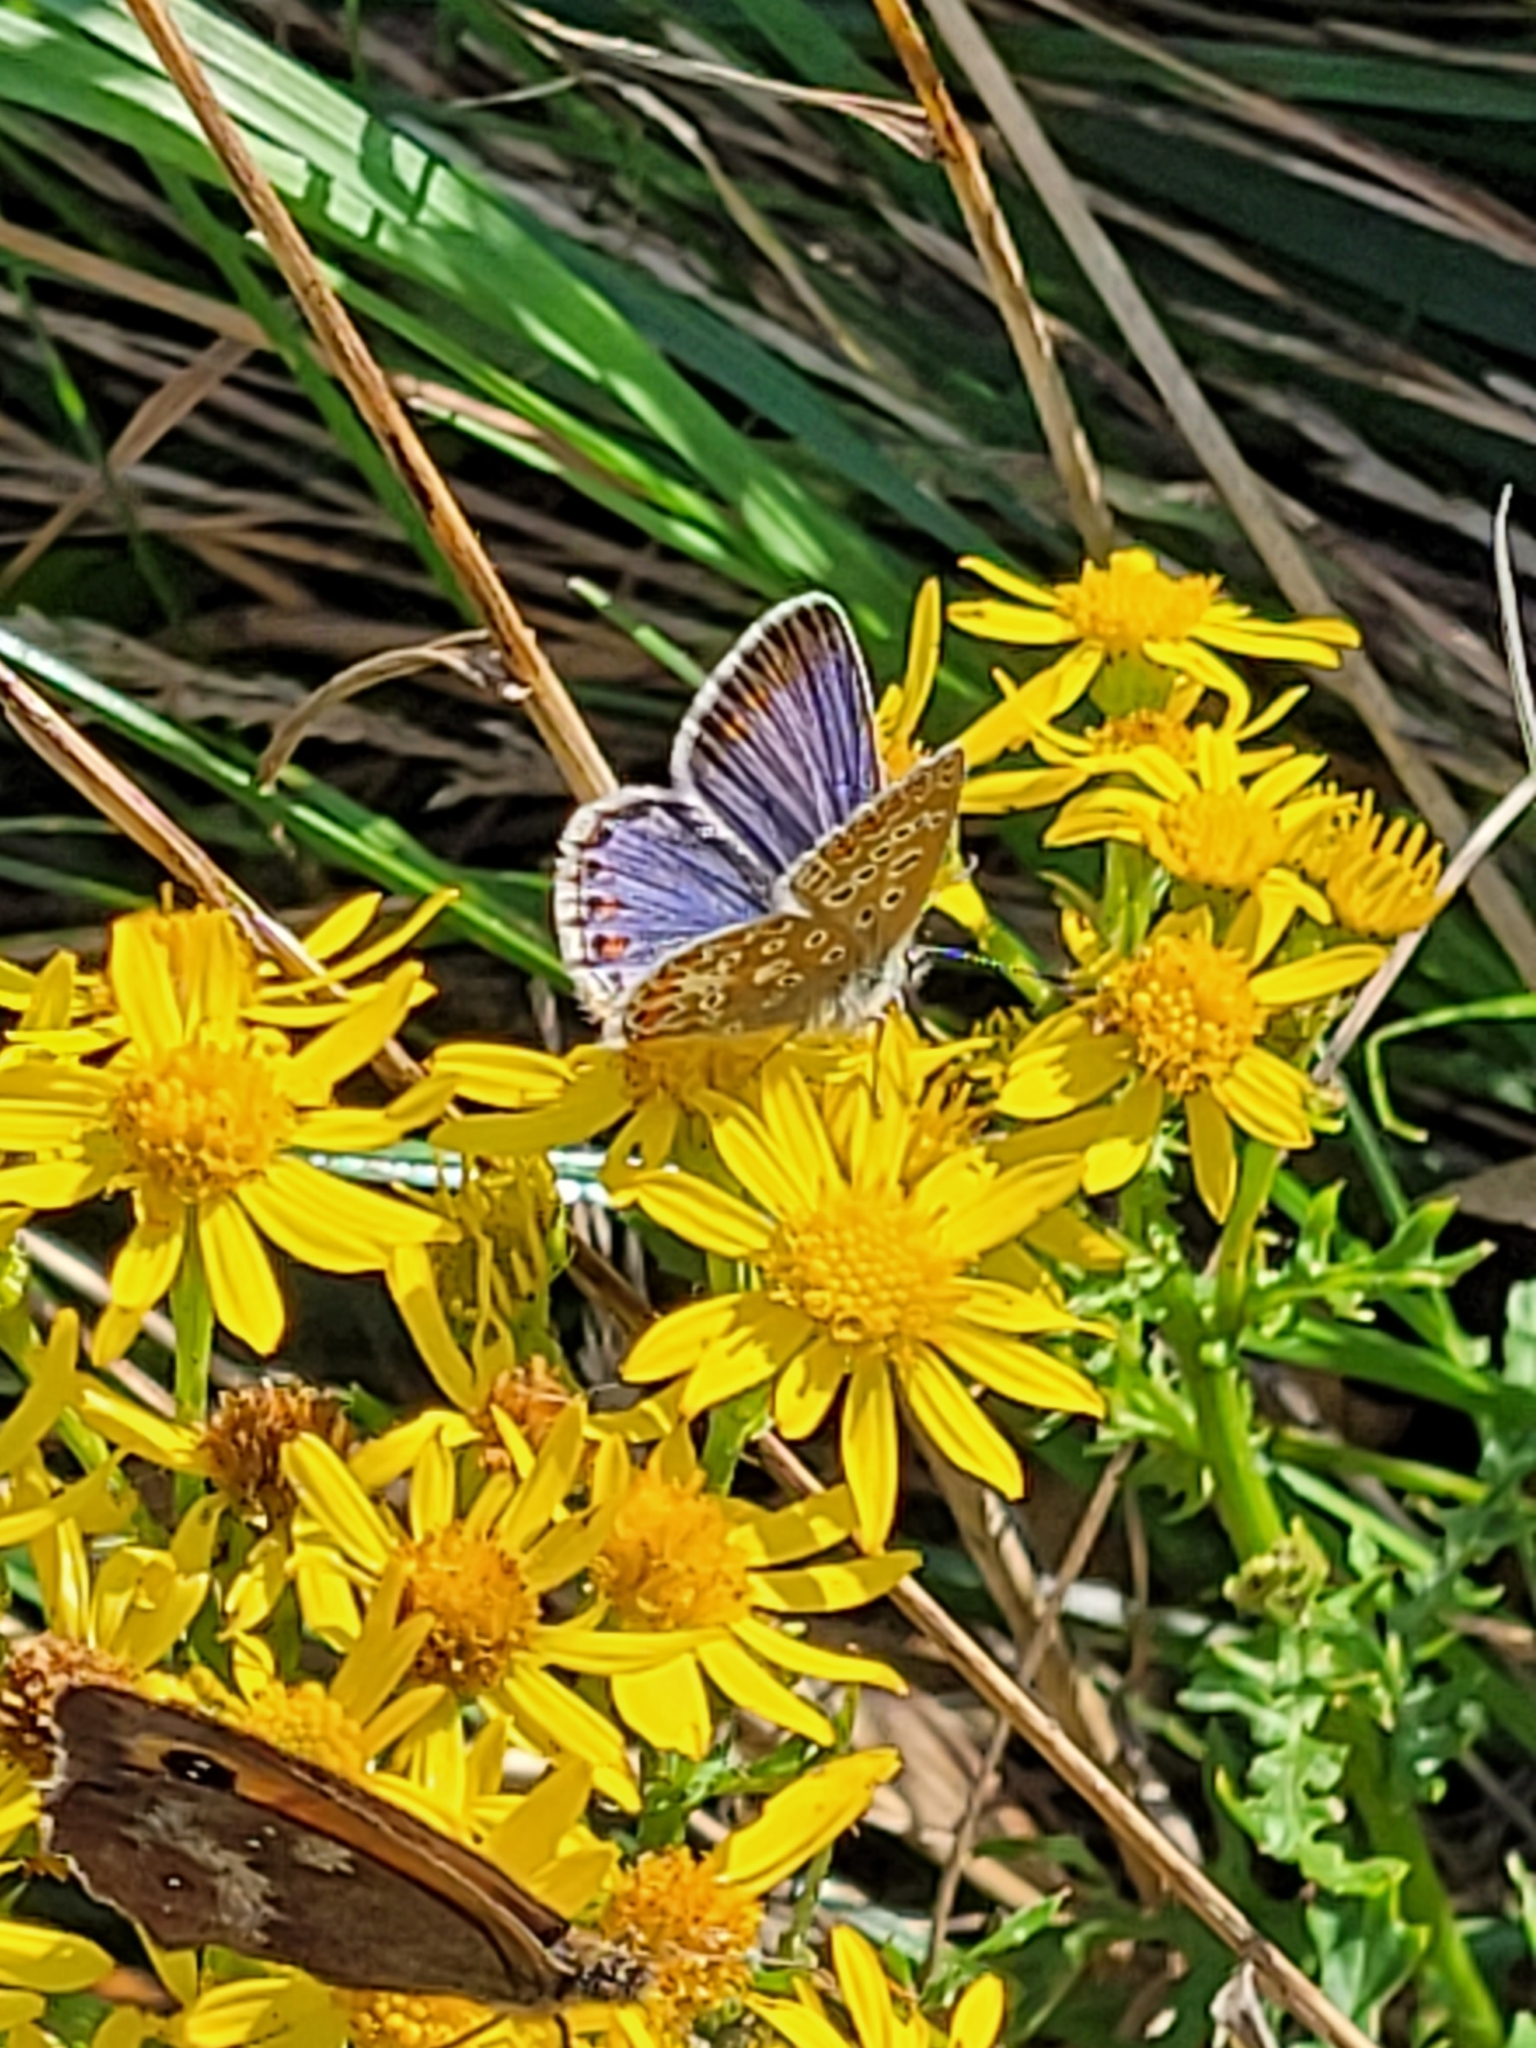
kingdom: Animalia
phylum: Arthropoda
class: Insecta
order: Lepidoptera
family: Lycaenidae
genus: Polyommatus
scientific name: Polyommatus icarus
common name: Common blue
